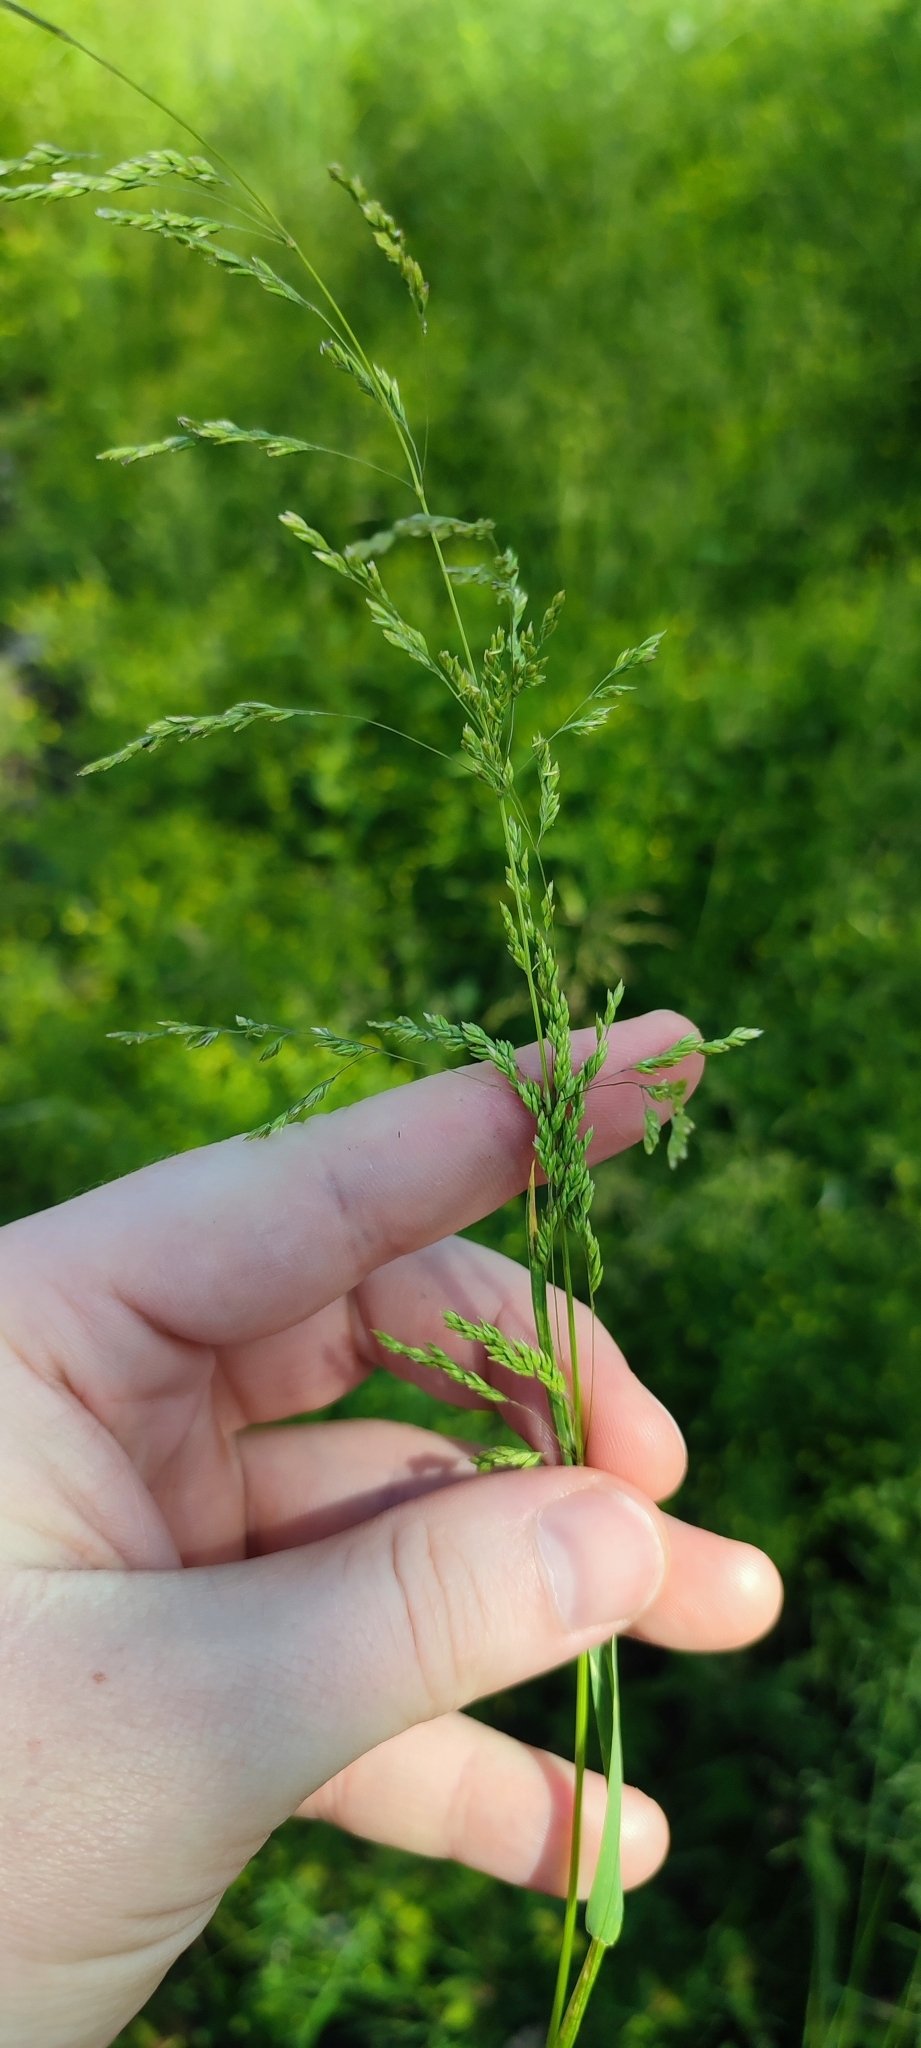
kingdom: Plantae
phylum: Tracheophyta
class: Liliopsida
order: Poales
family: Poaceae
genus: Poa
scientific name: Poa trivialis
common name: Rough bluegrass
